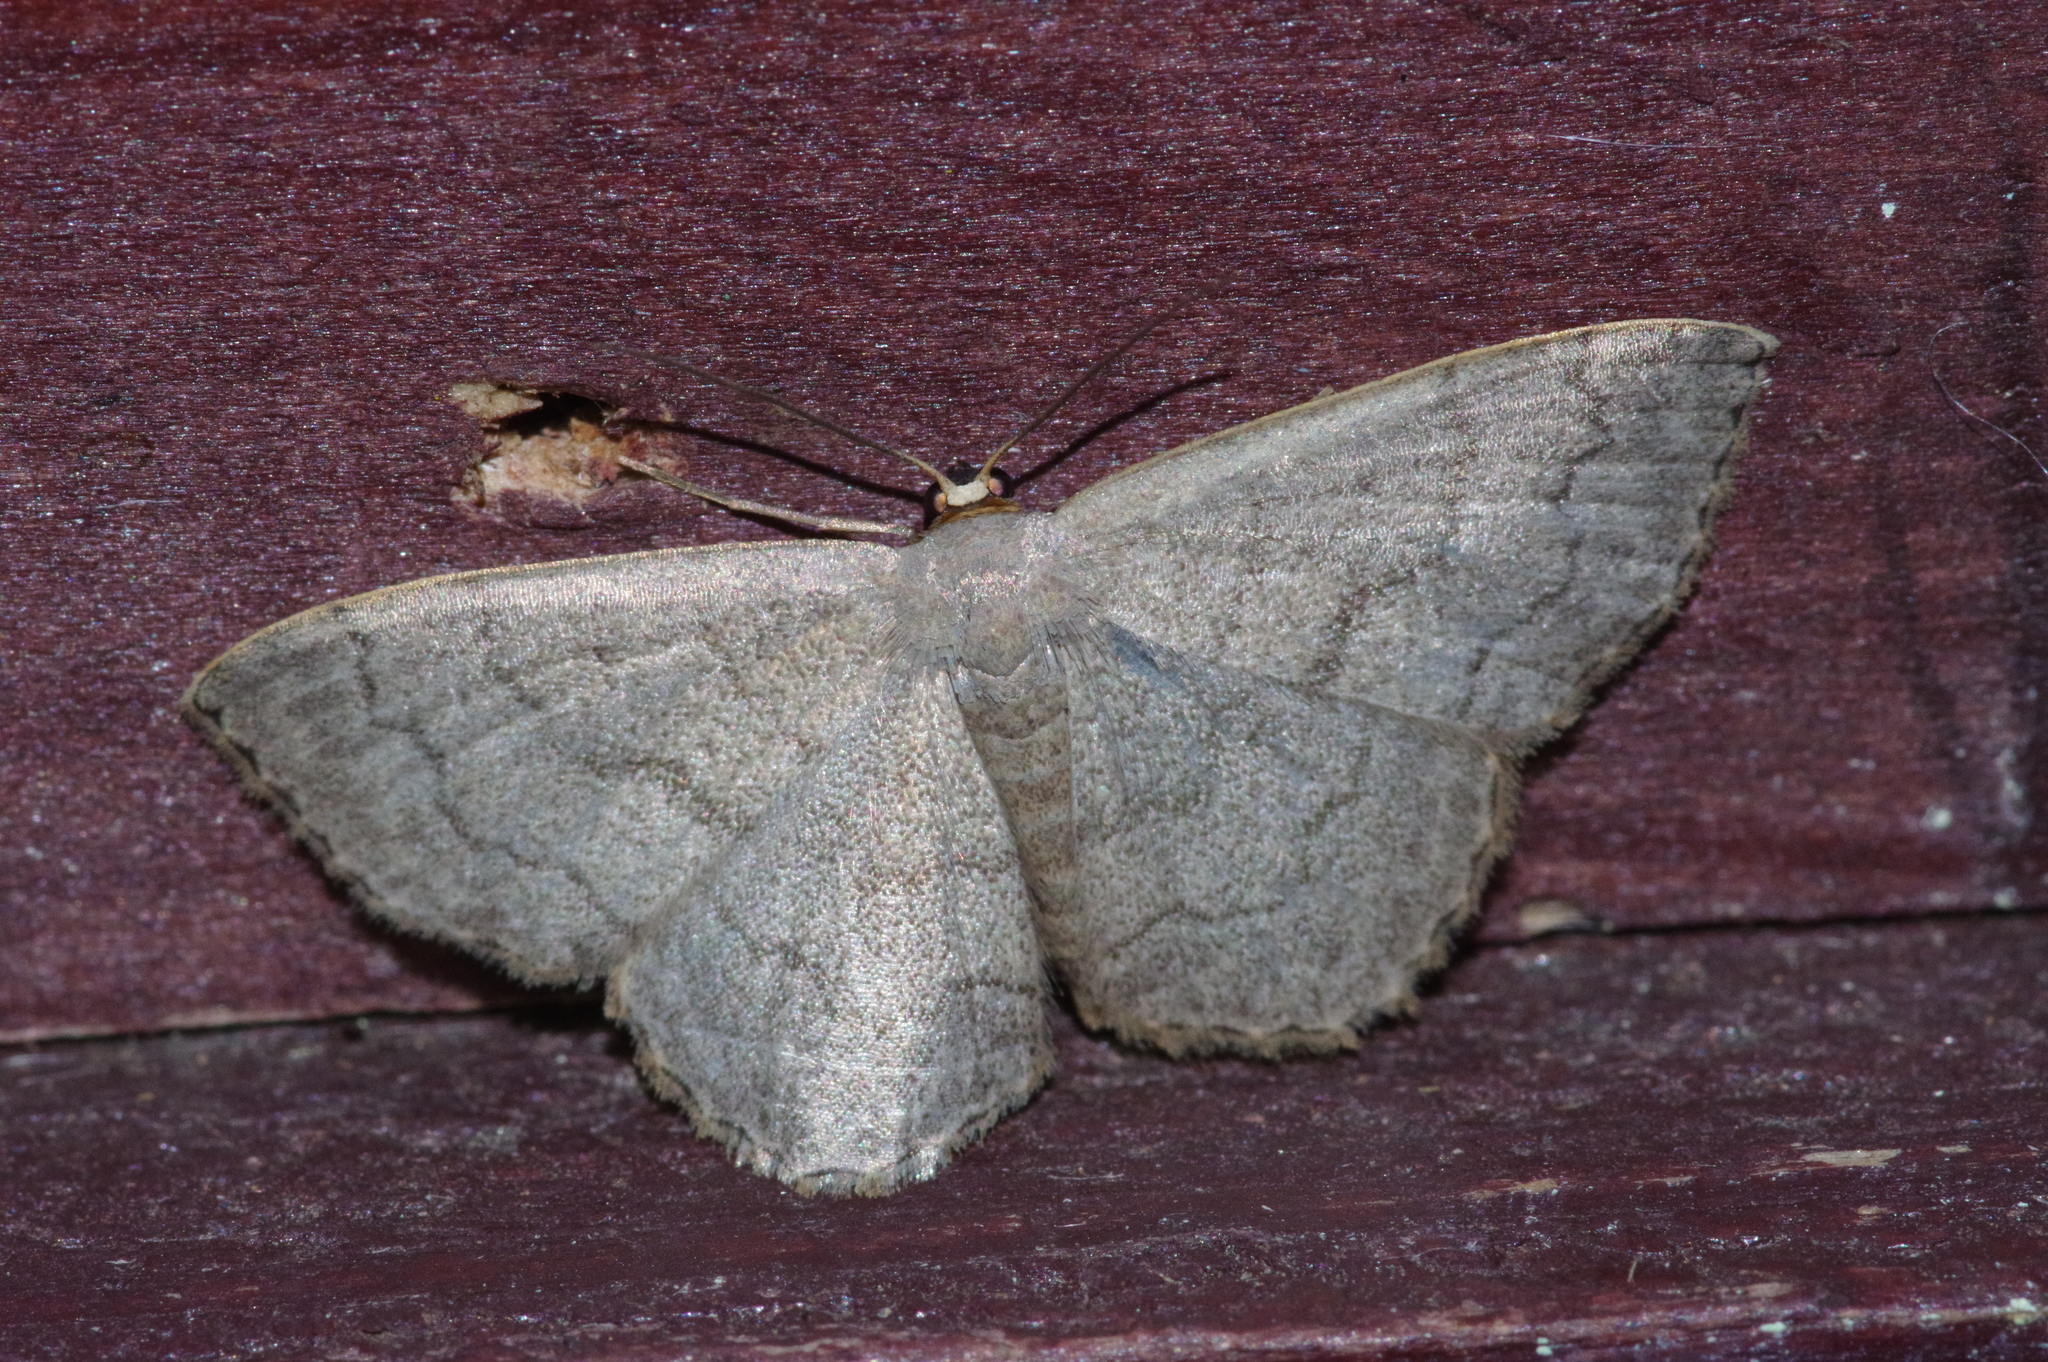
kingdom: Animalia
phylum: Arthropoda
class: Insecta
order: Lepidoptera
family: Geometridae
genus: Scopula
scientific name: Scopula plumbearia
